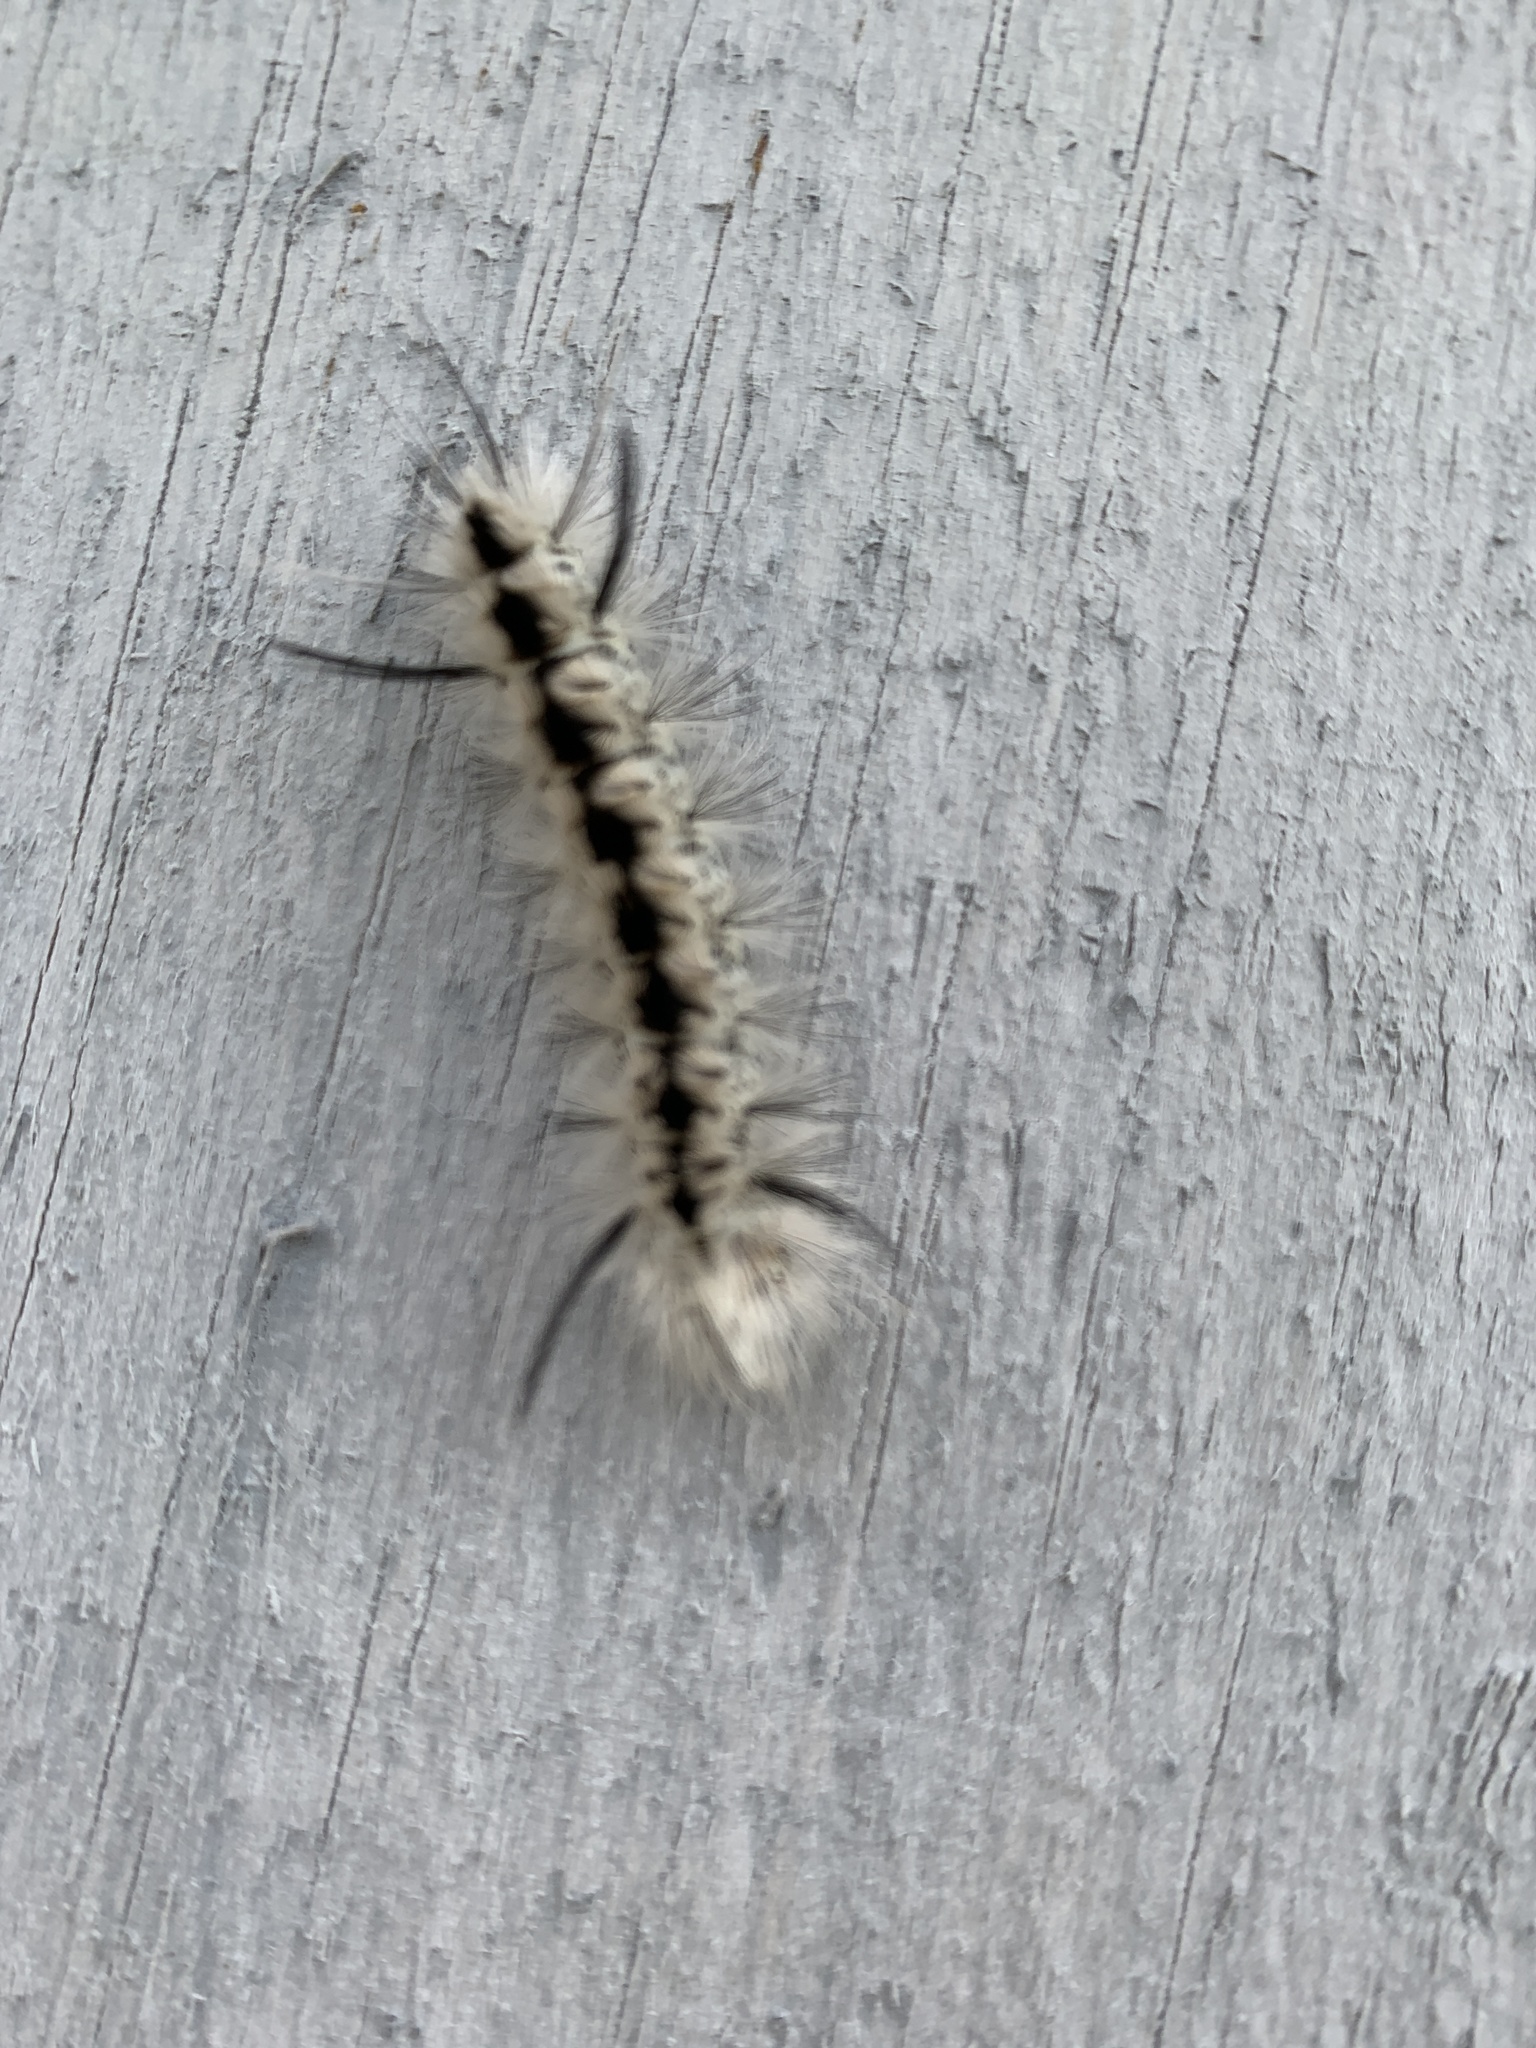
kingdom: Animalia
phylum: Arthropoda
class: Insecta
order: Lepidoptera
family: Erebidae
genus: Lophocampa
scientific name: Lophocampa caryae
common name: Hickory tussock moth
